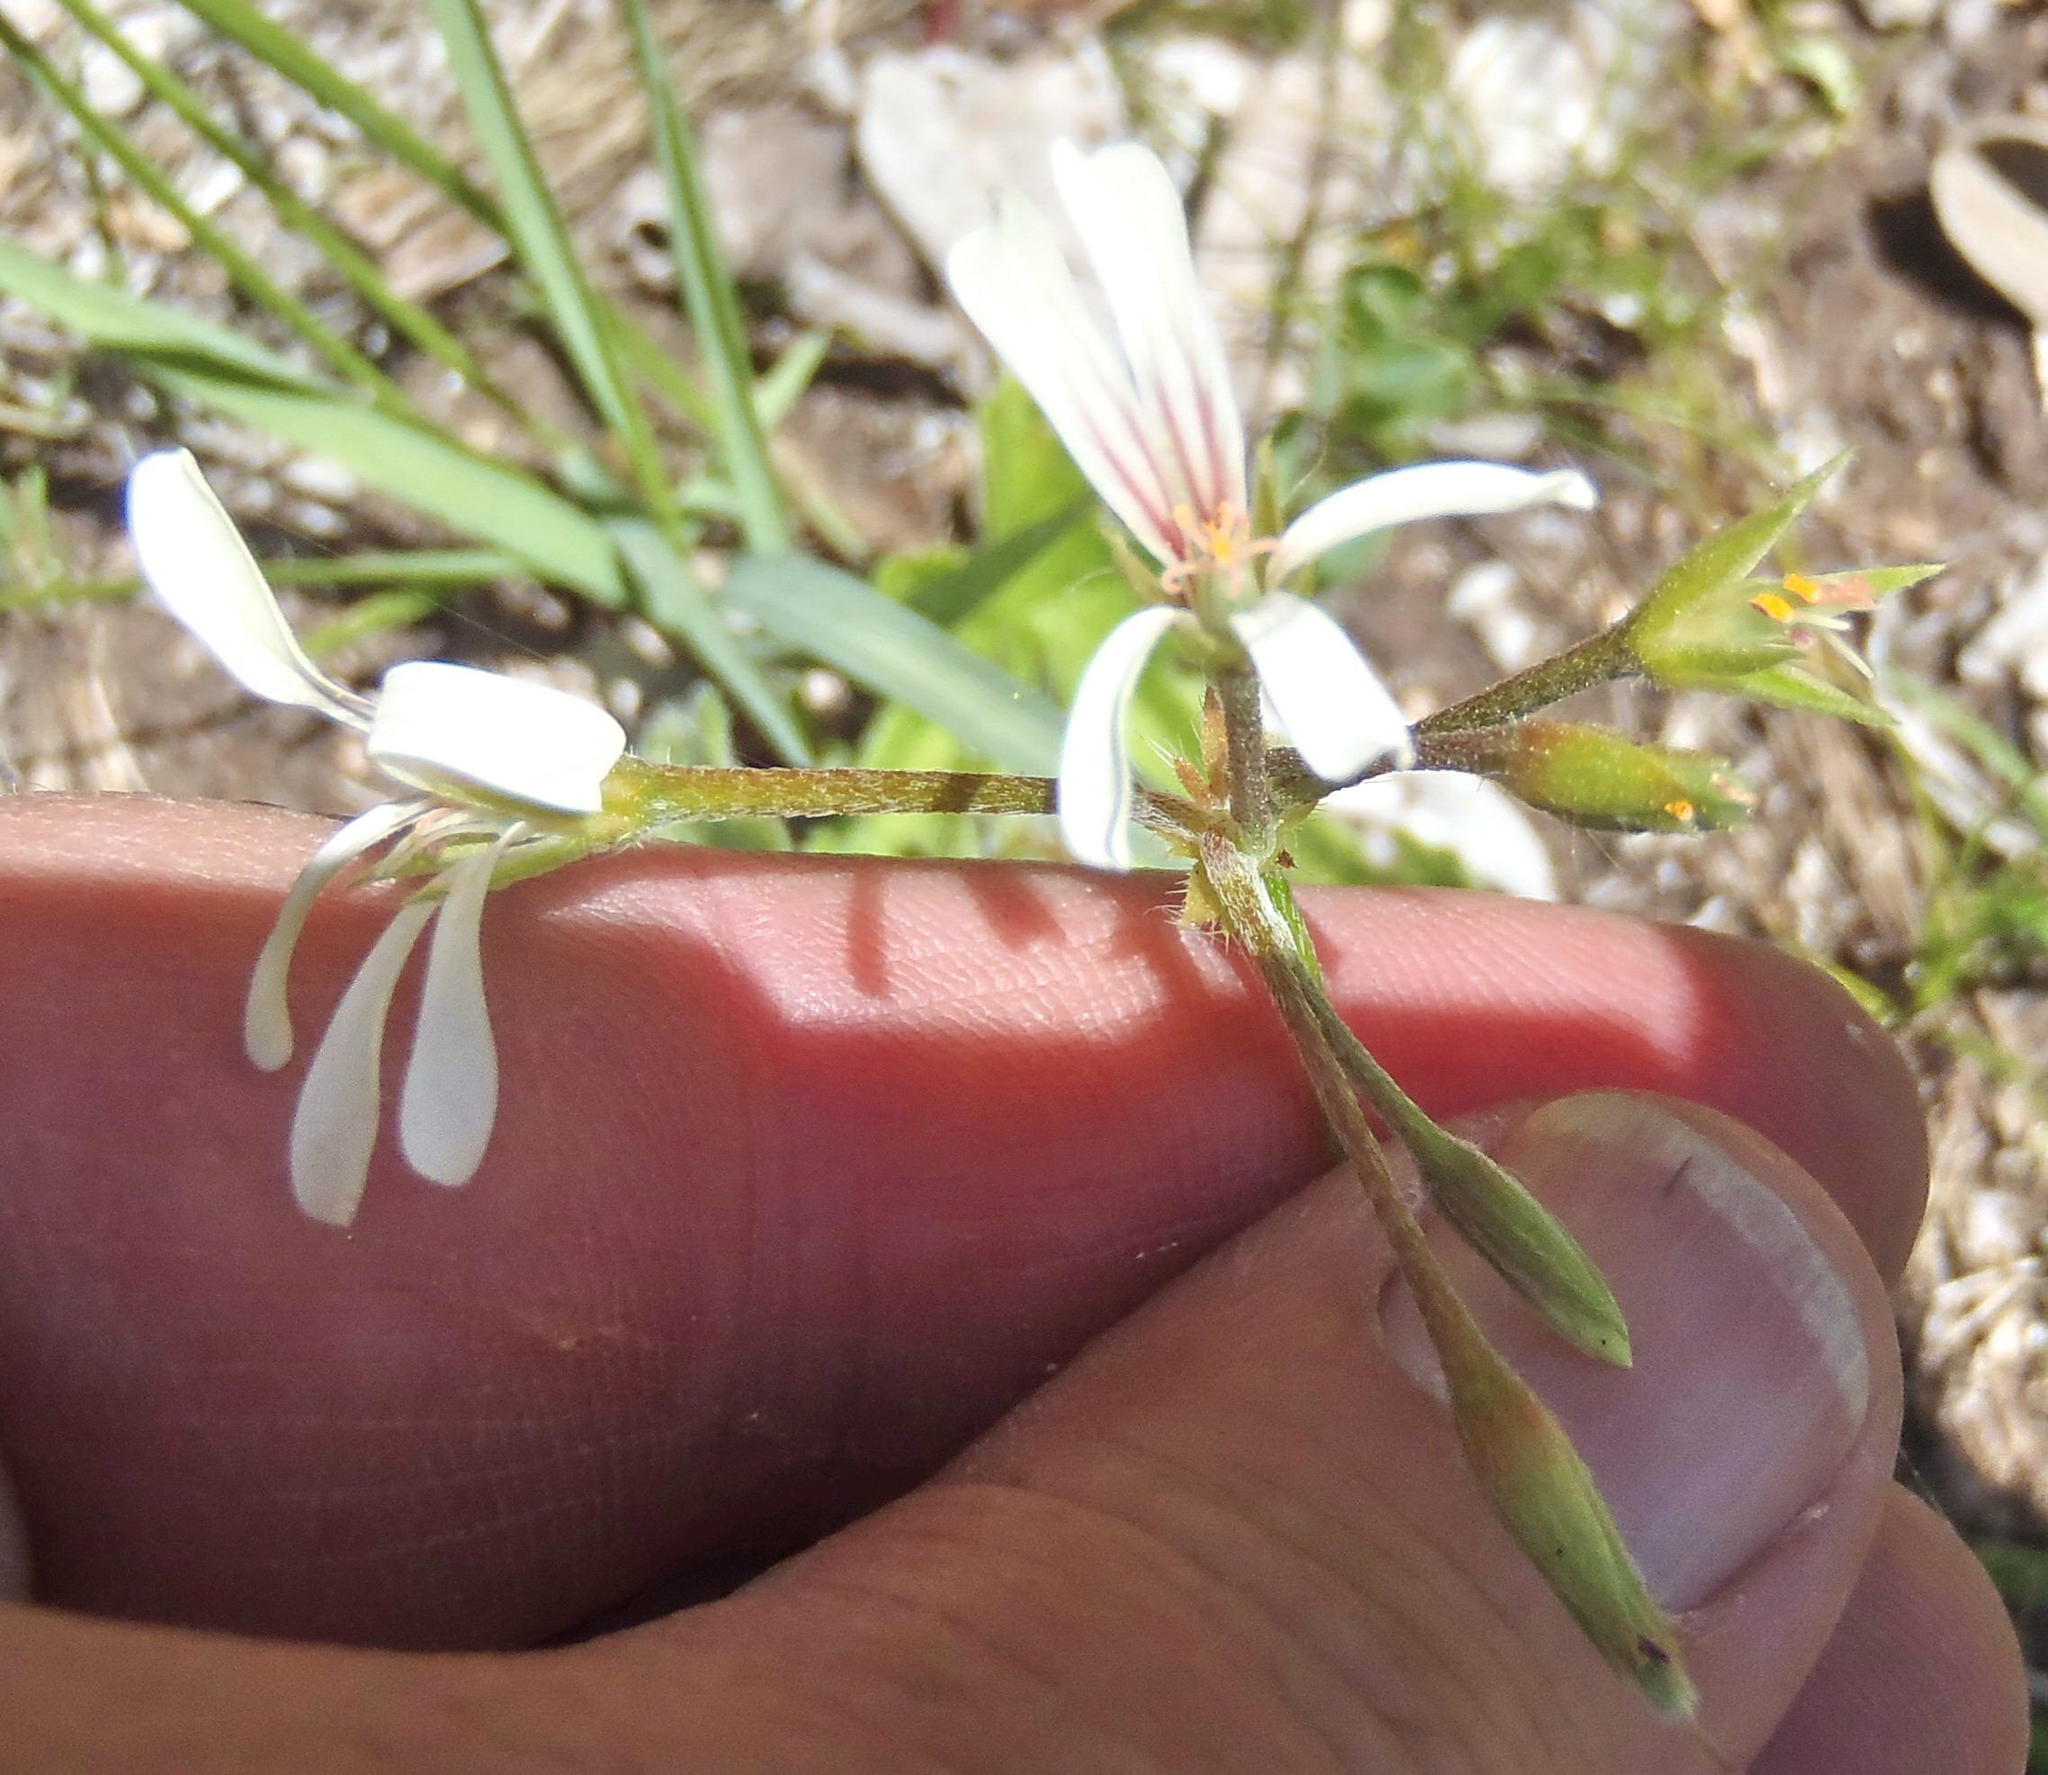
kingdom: Plantae
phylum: Tracheophyta
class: Magnoliopsida
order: Geraniales
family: Geraniaceae
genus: Pelargonium
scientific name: Pelargonium alchemilloides
